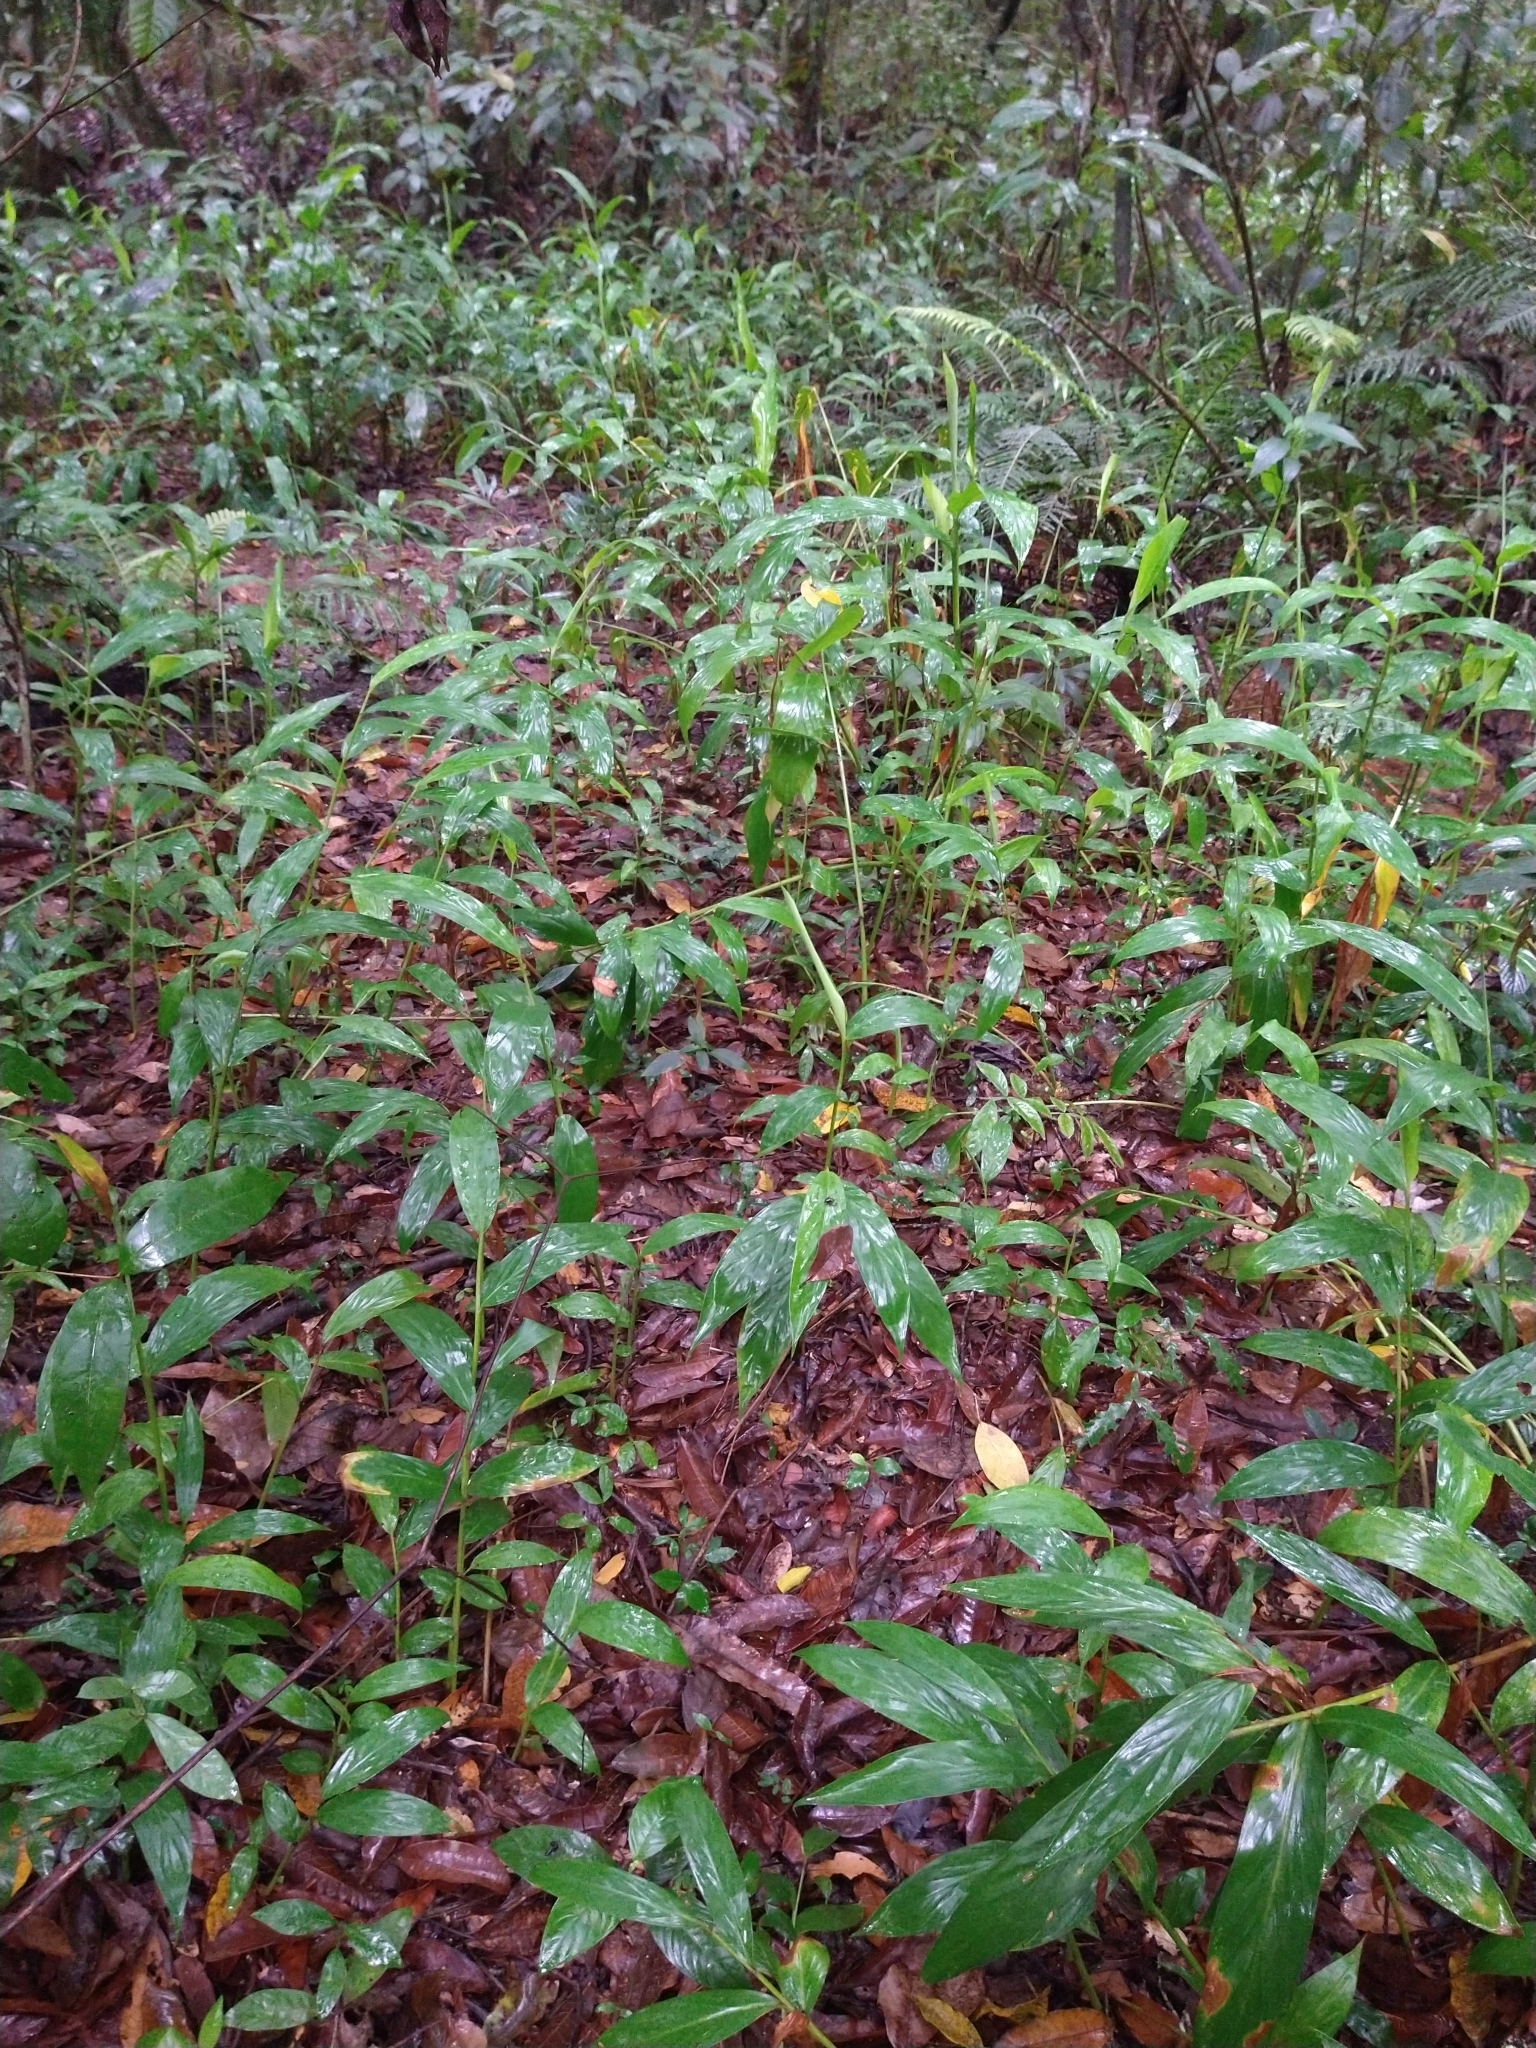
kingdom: Plantae
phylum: Tracheophyta
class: Liliopsida
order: Zingiberales
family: Zingiberaceae
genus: Hedychium
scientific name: Hedychium coronarium
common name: White garland-lily
